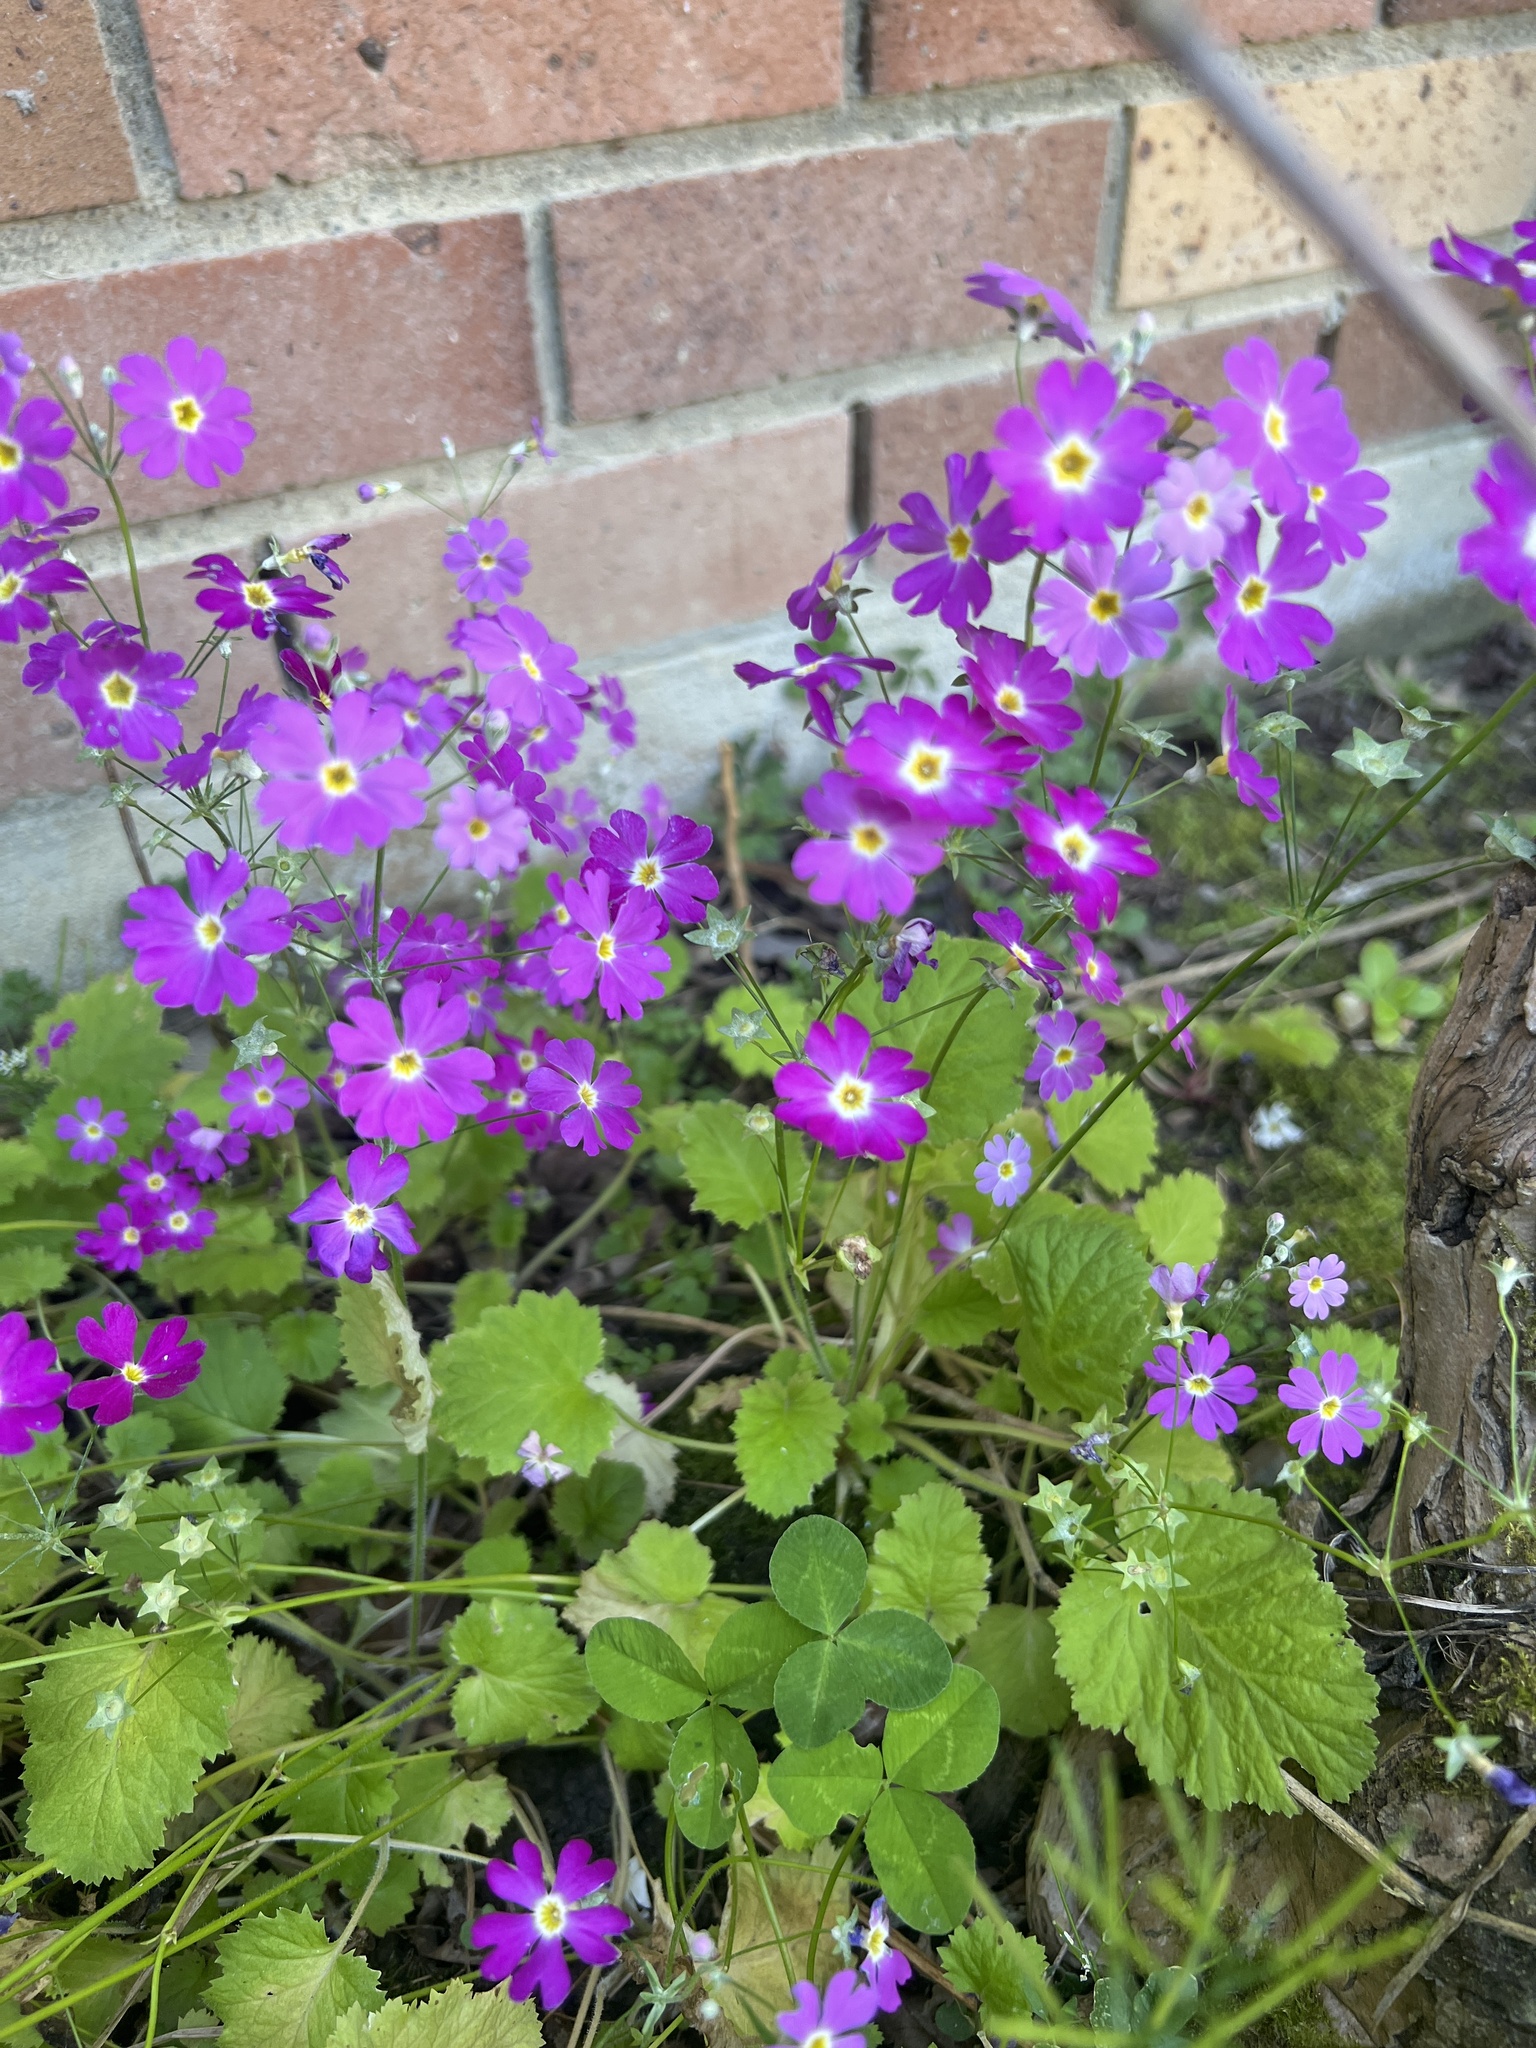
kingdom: Plantae
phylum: Tracheophyta
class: Magnoliopsida
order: Ericales
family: Primulaceae
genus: Primula
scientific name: Primula malacoides
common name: Baby primrose
